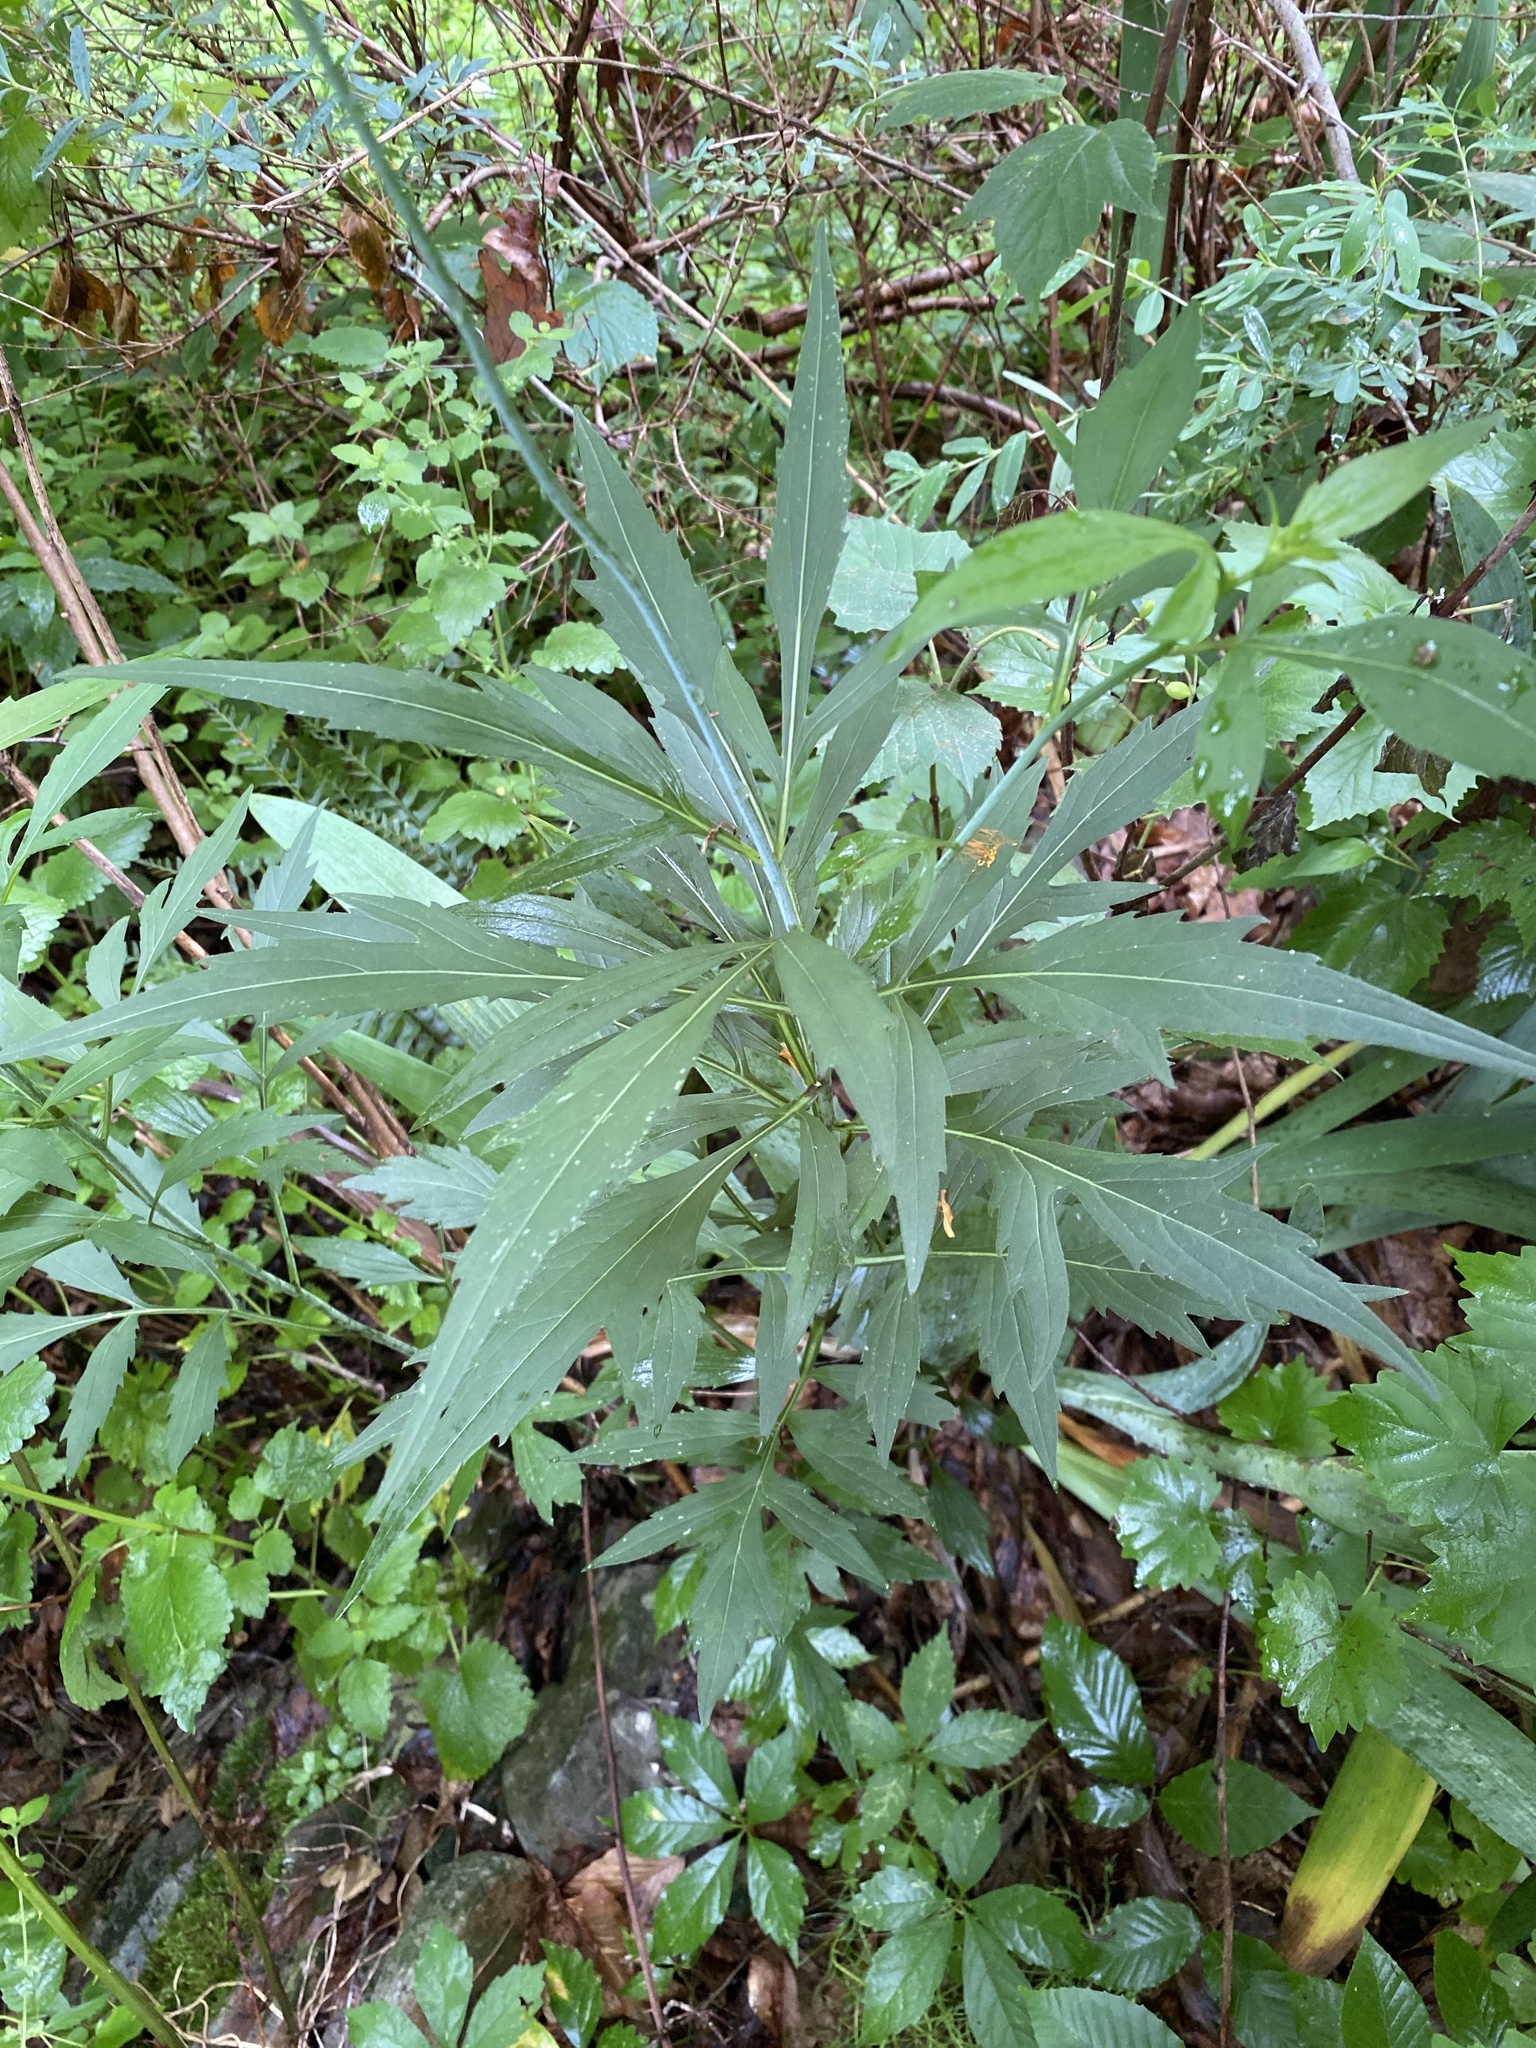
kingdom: Plantae
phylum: Tracheophyta
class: Magnoliopsida
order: Asterales
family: Asteraceae
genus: Rudbeckia
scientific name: Rudbeckia laciniata
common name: Coneflower
